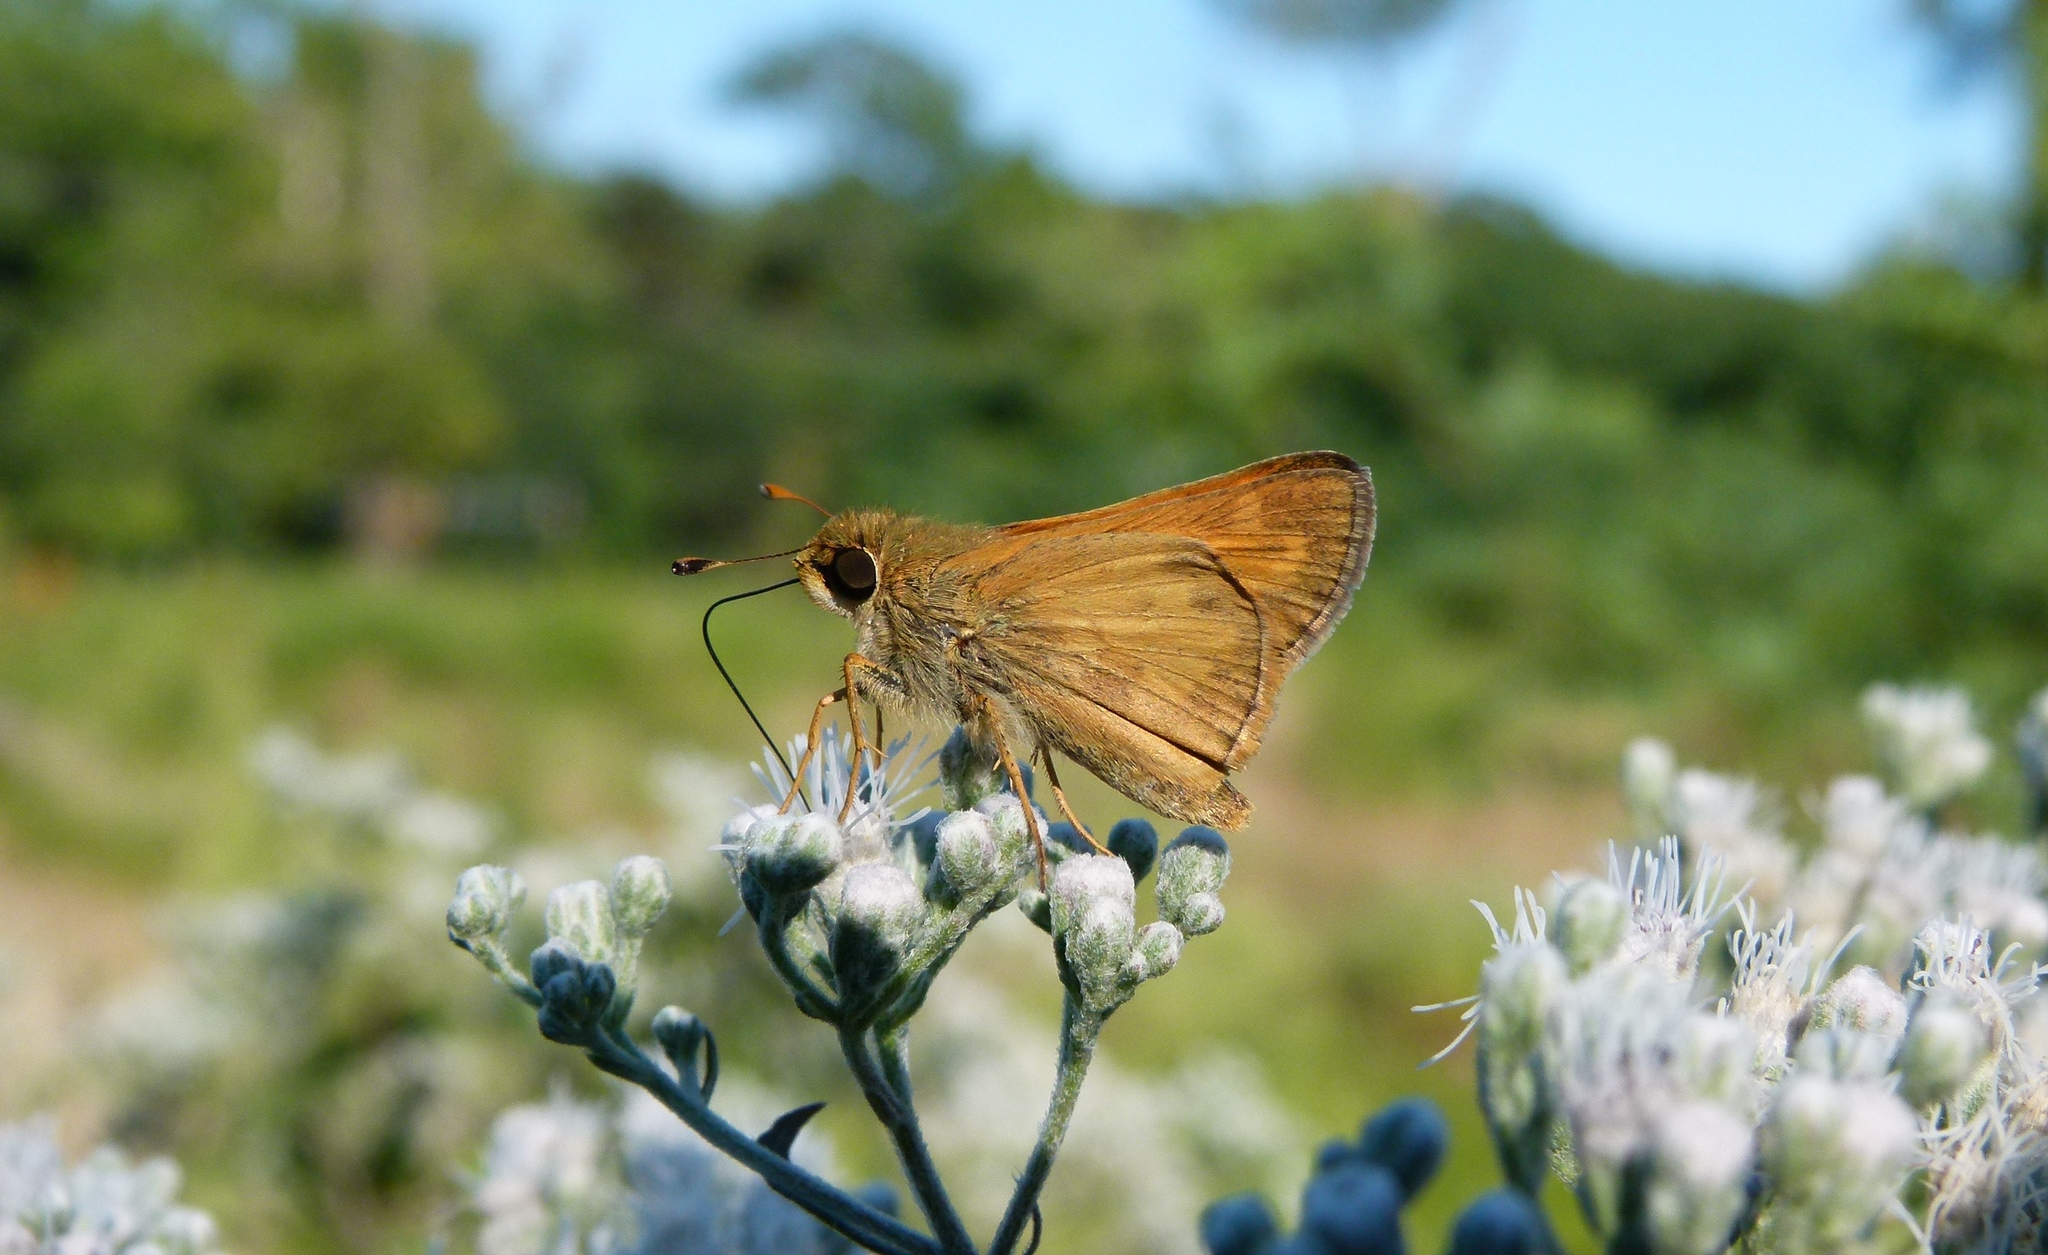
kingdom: Animalia
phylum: Arthropoda
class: Insecta
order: Lepidoptera
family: Hesperiidae
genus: Atalopedes
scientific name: Atalopedes
